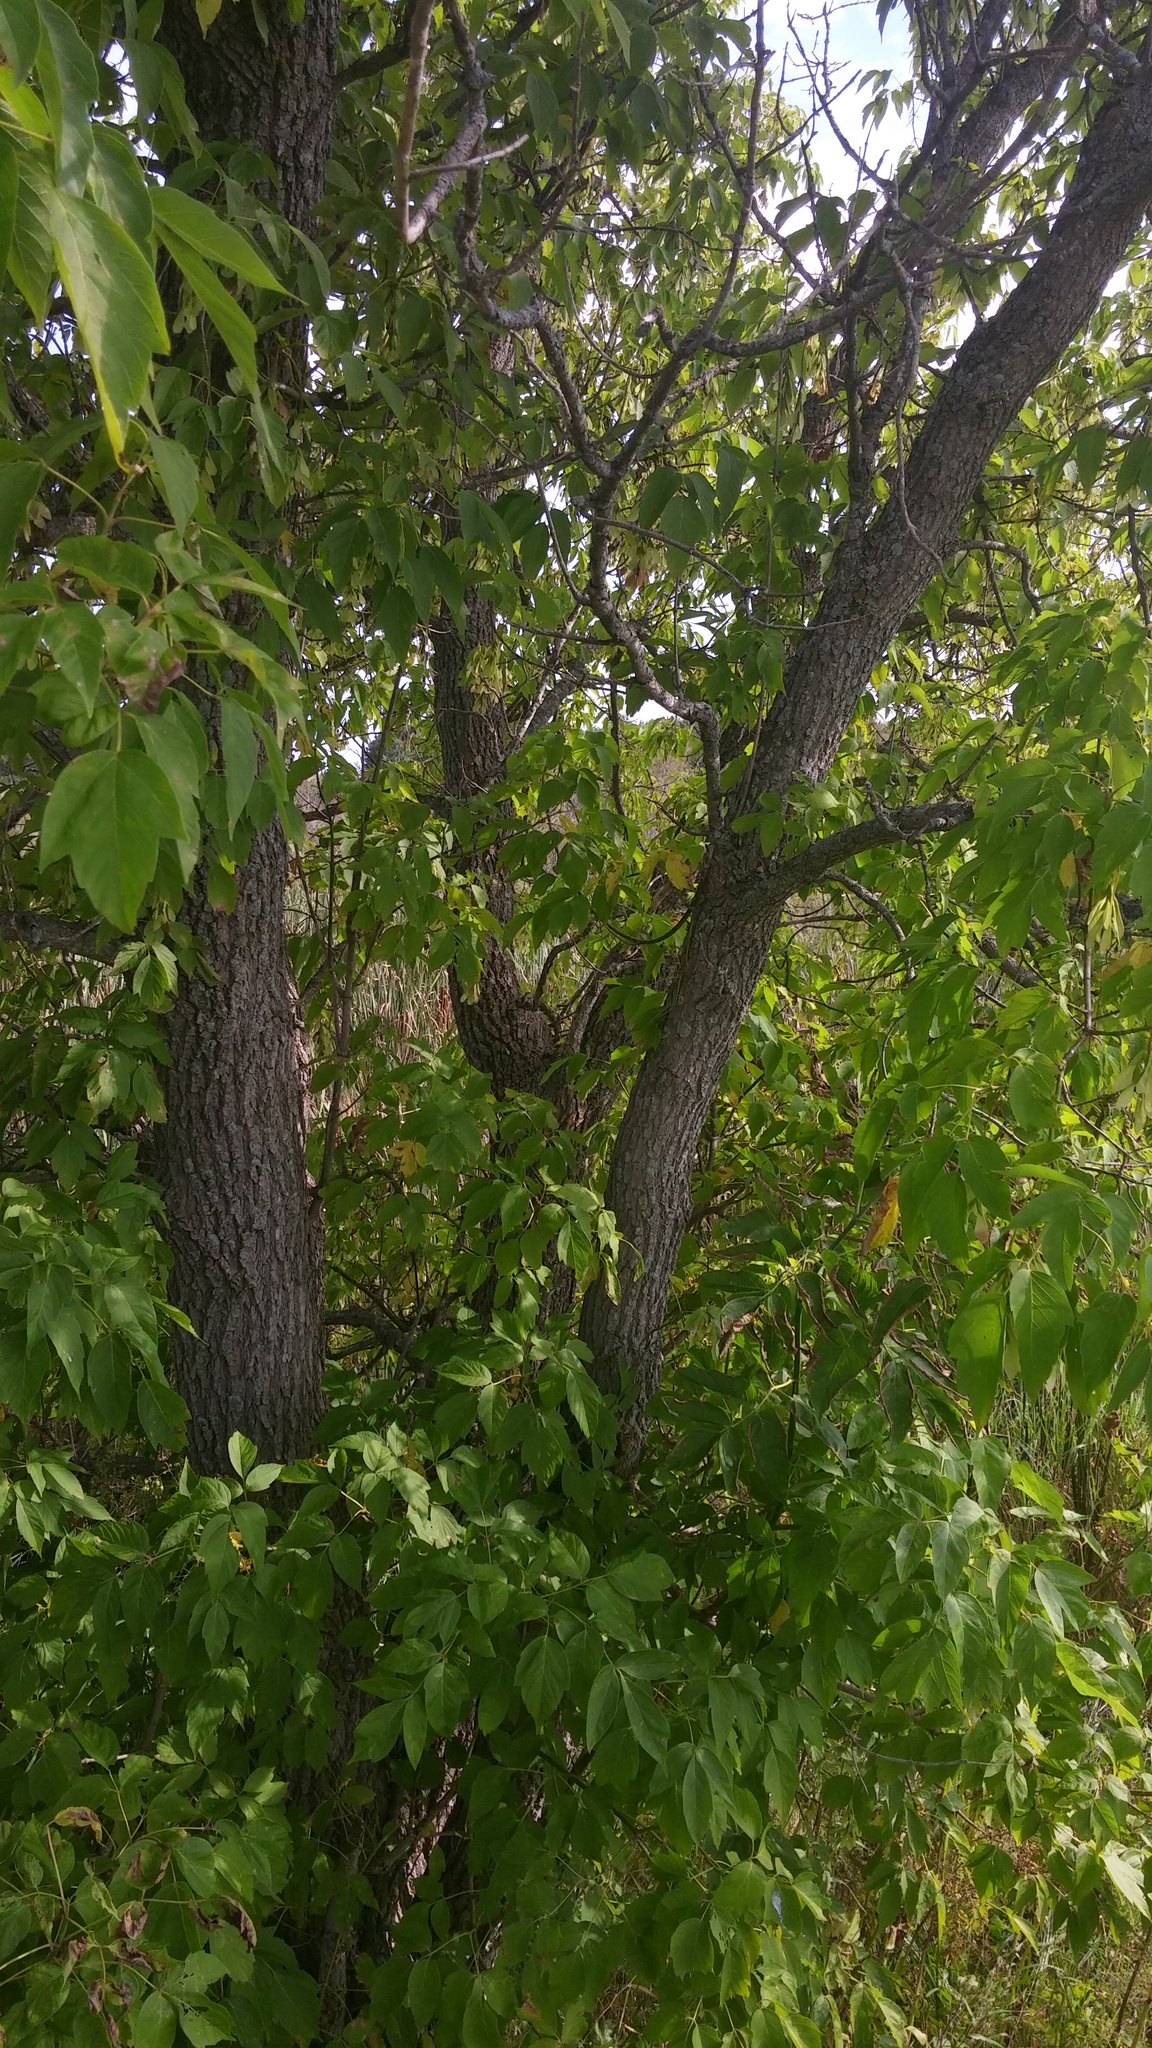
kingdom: Plantae
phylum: Tracheophyta
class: Magnoliopsida
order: Sapindales
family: Sapindaceae
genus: Acer
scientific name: Acer negundo
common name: Ashleaf maple
